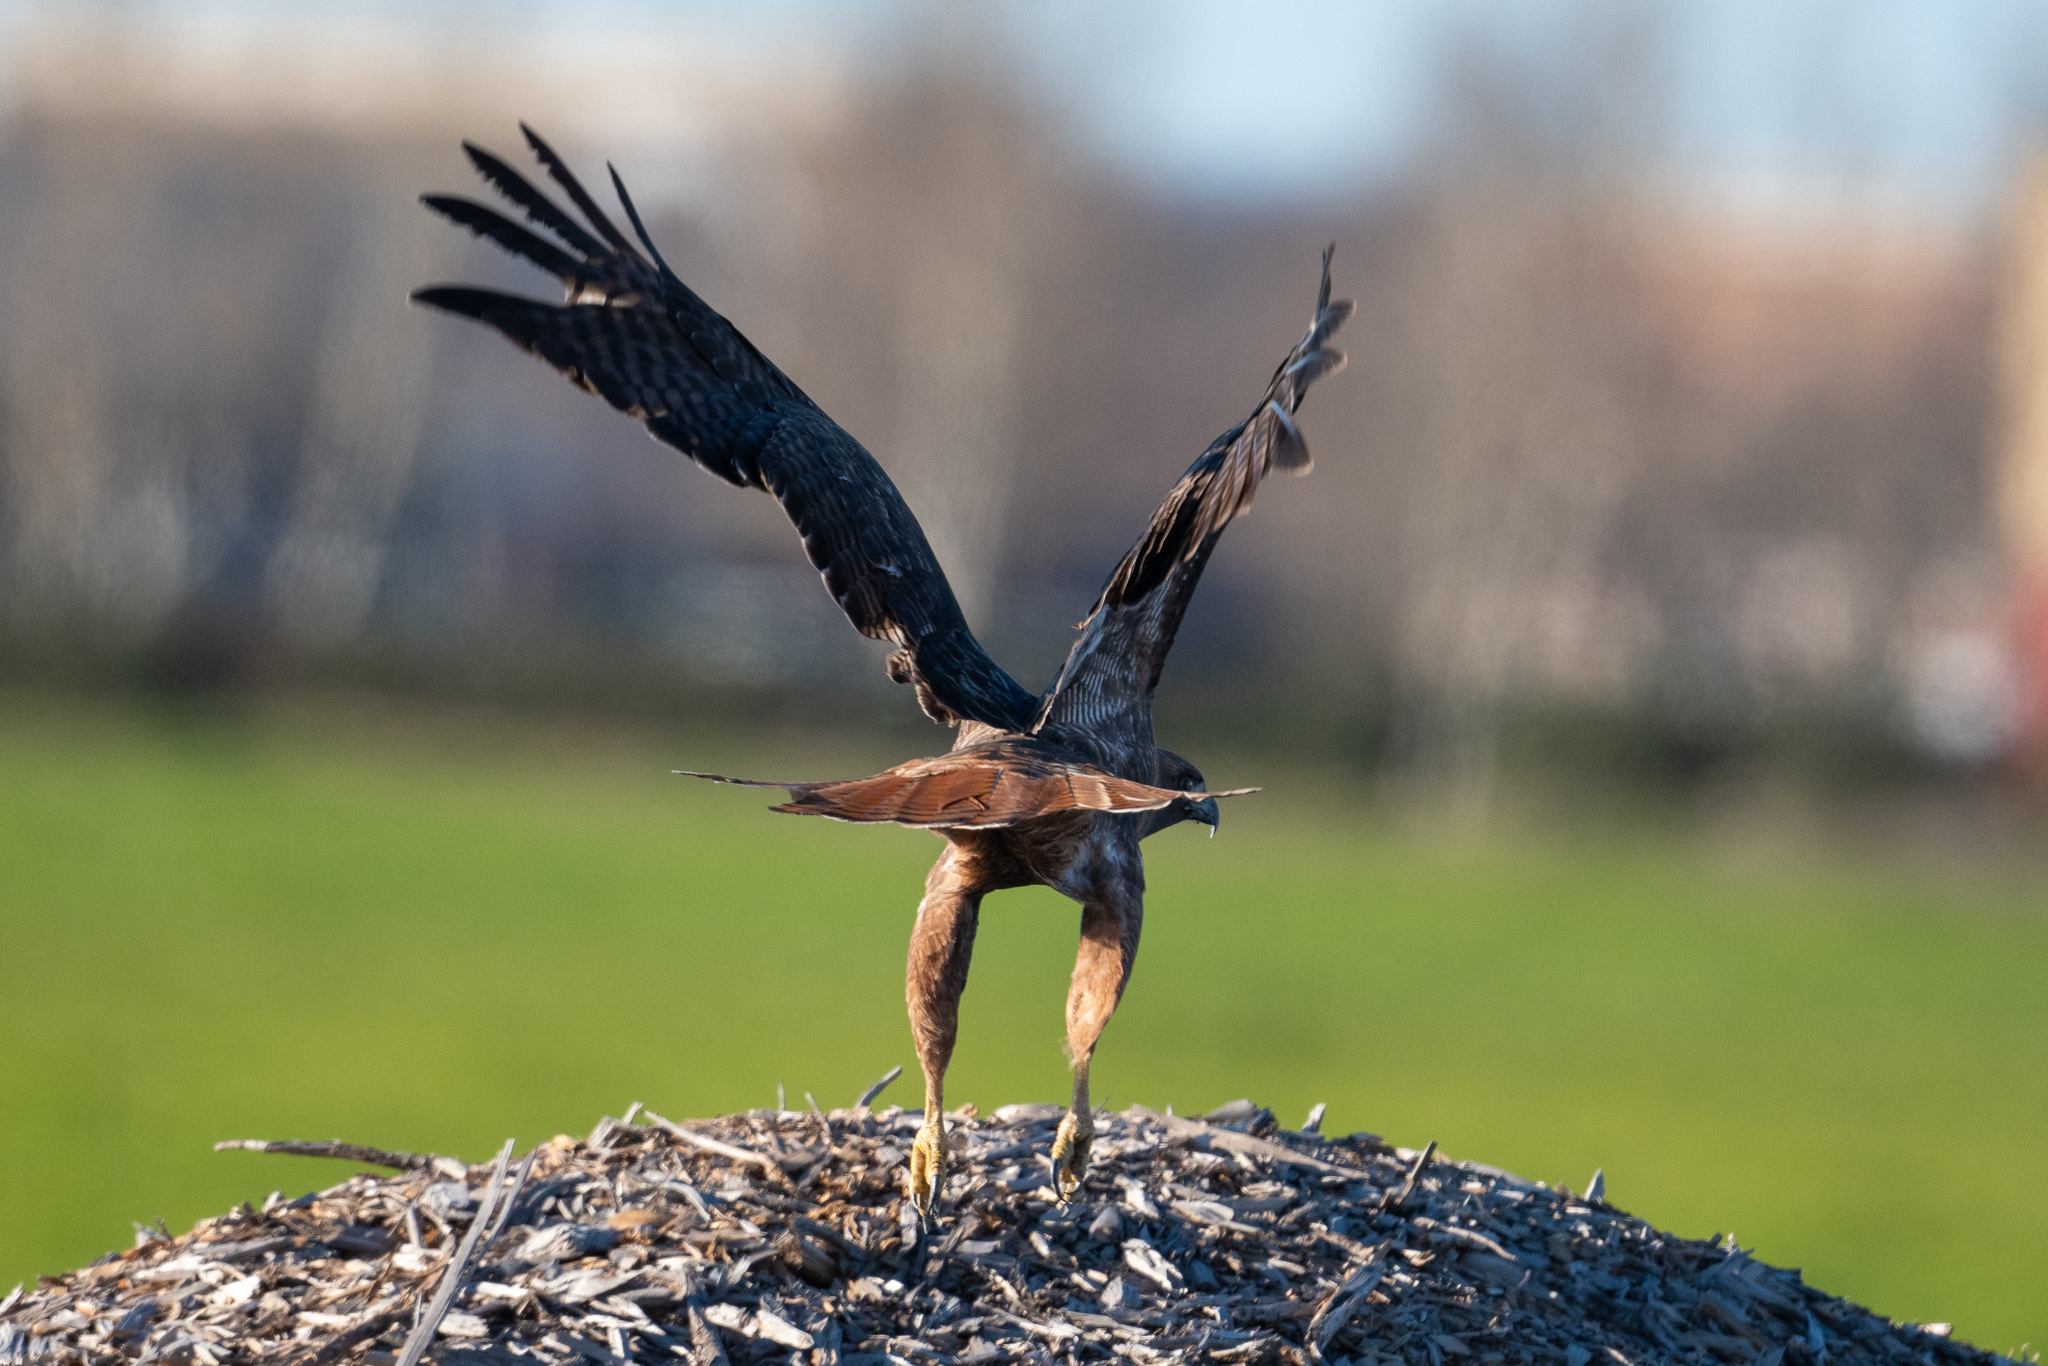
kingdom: Animalia
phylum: Chordata
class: Aves
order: Accipitriformes
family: Accipitridae
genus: Buteo
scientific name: Buteo jamaicensis
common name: Red-tailed hawk
